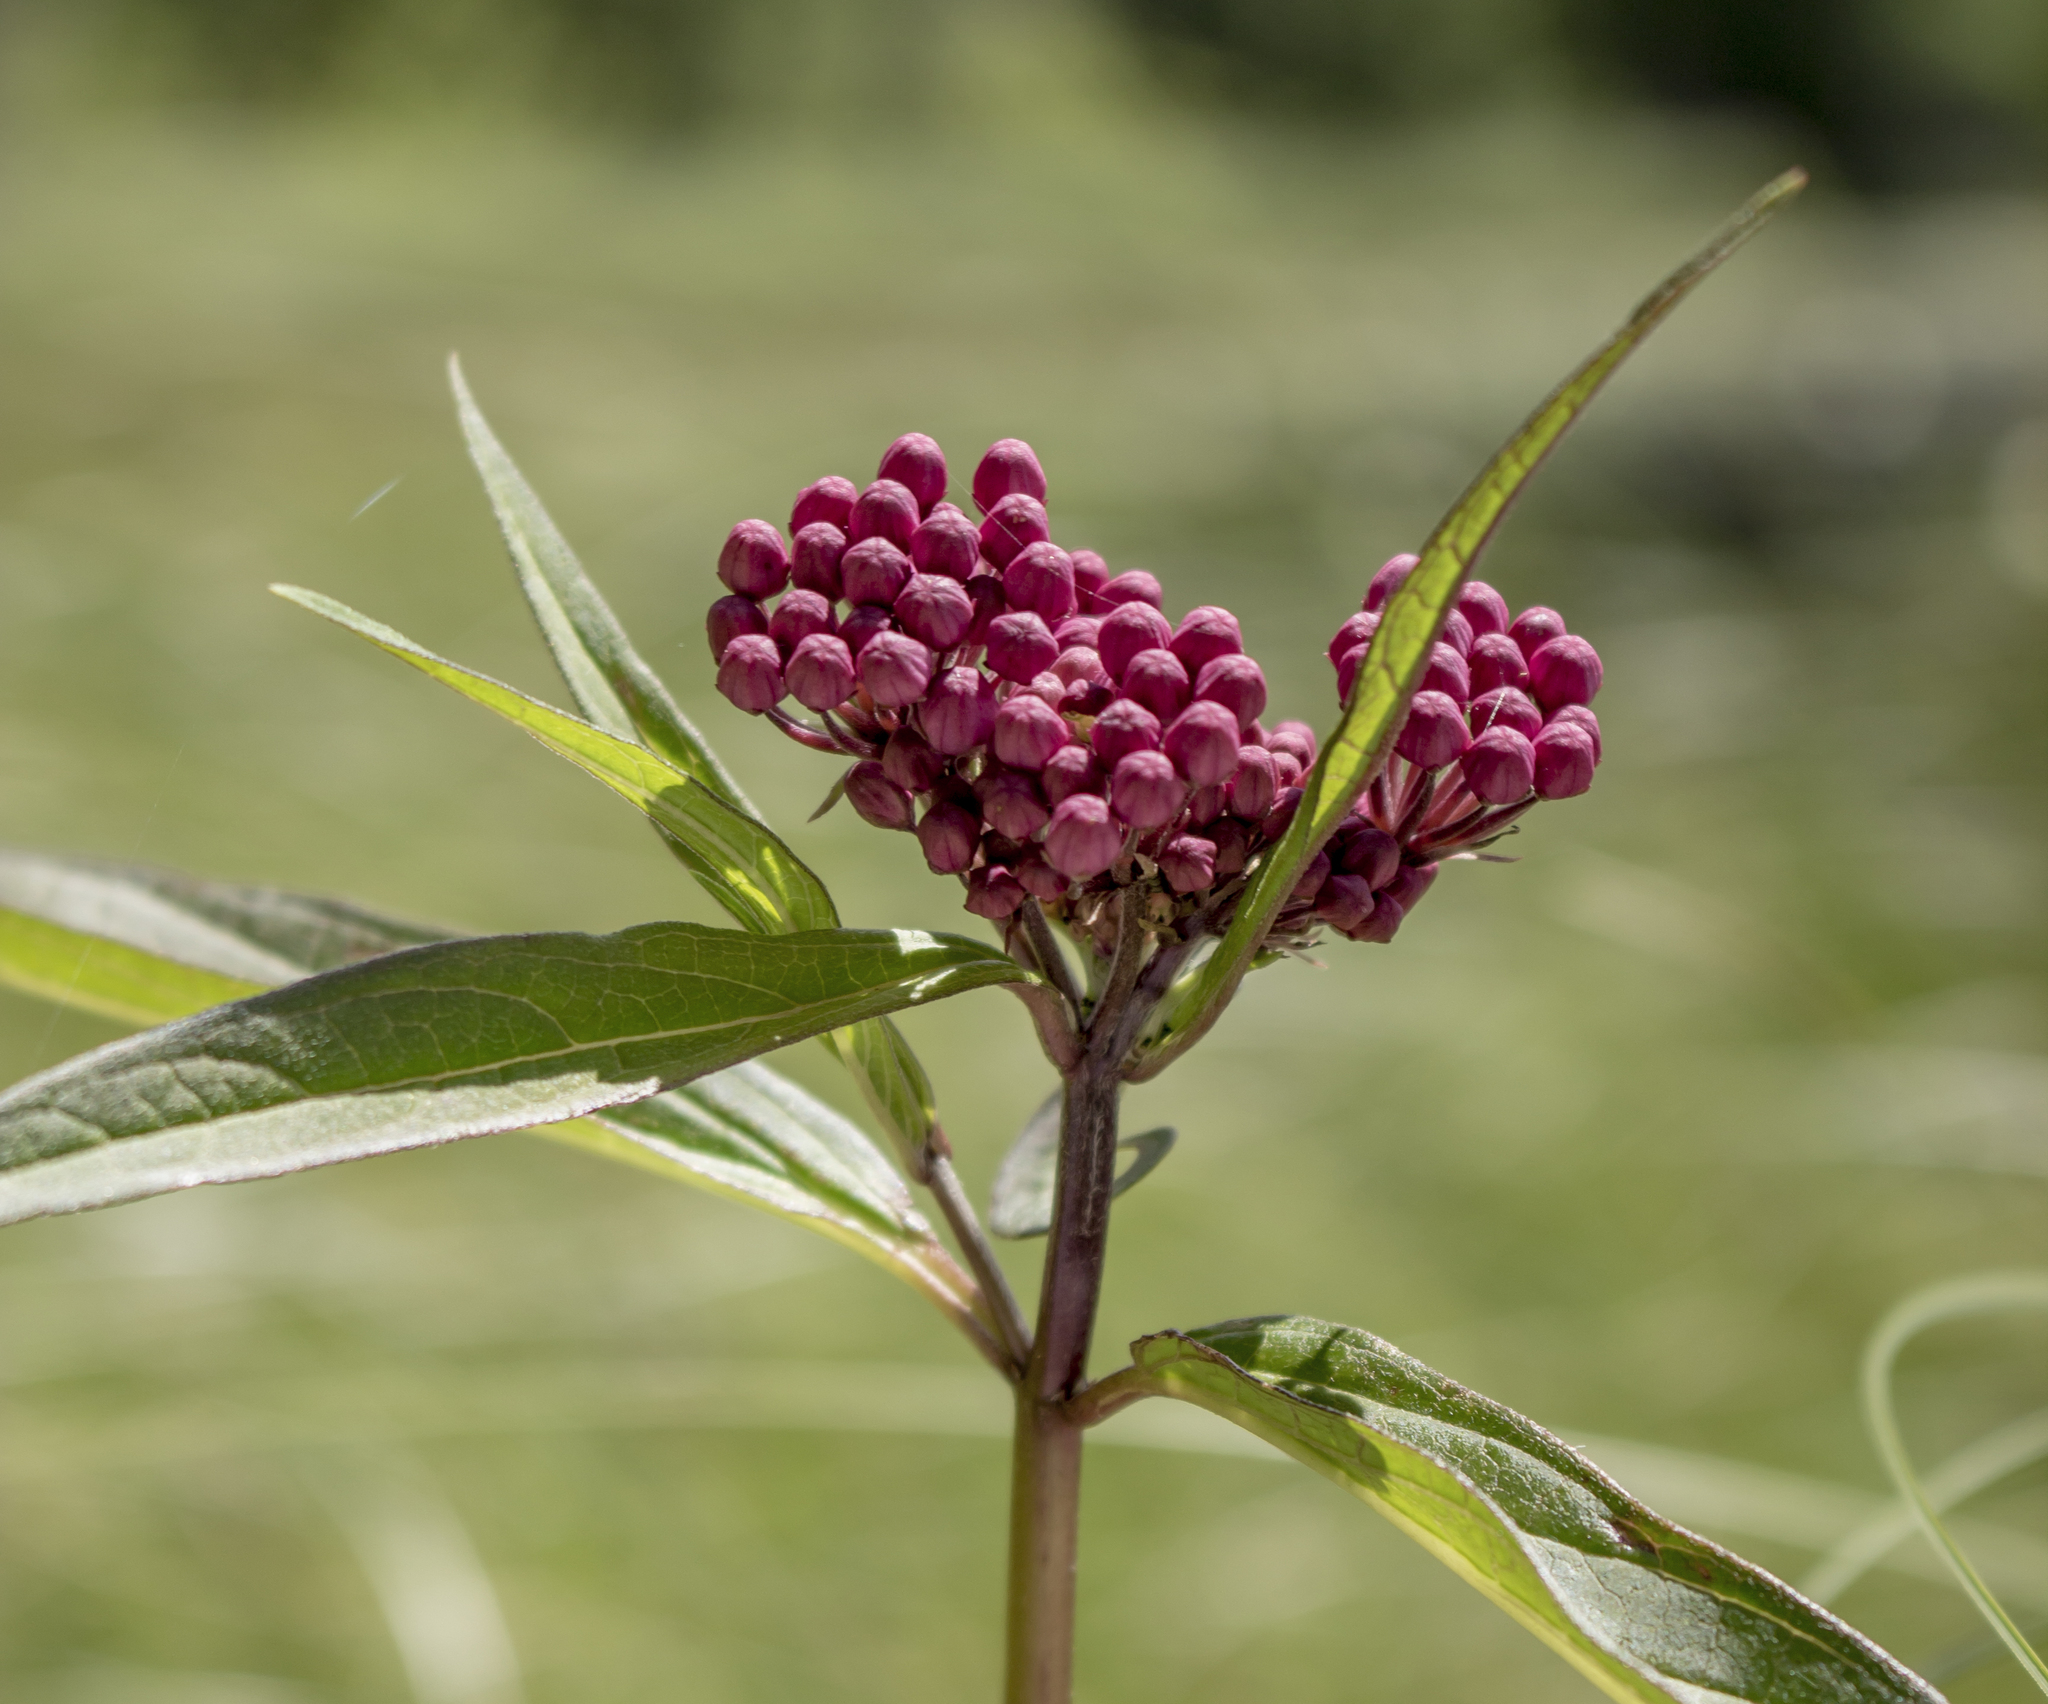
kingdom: Plantae
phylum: Tracheophyta
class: Magnoliopsida
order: Gentianales
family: Apocynaceae
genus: Asclepias
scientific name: Asclepias incarnata
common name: Swamp milkweed
